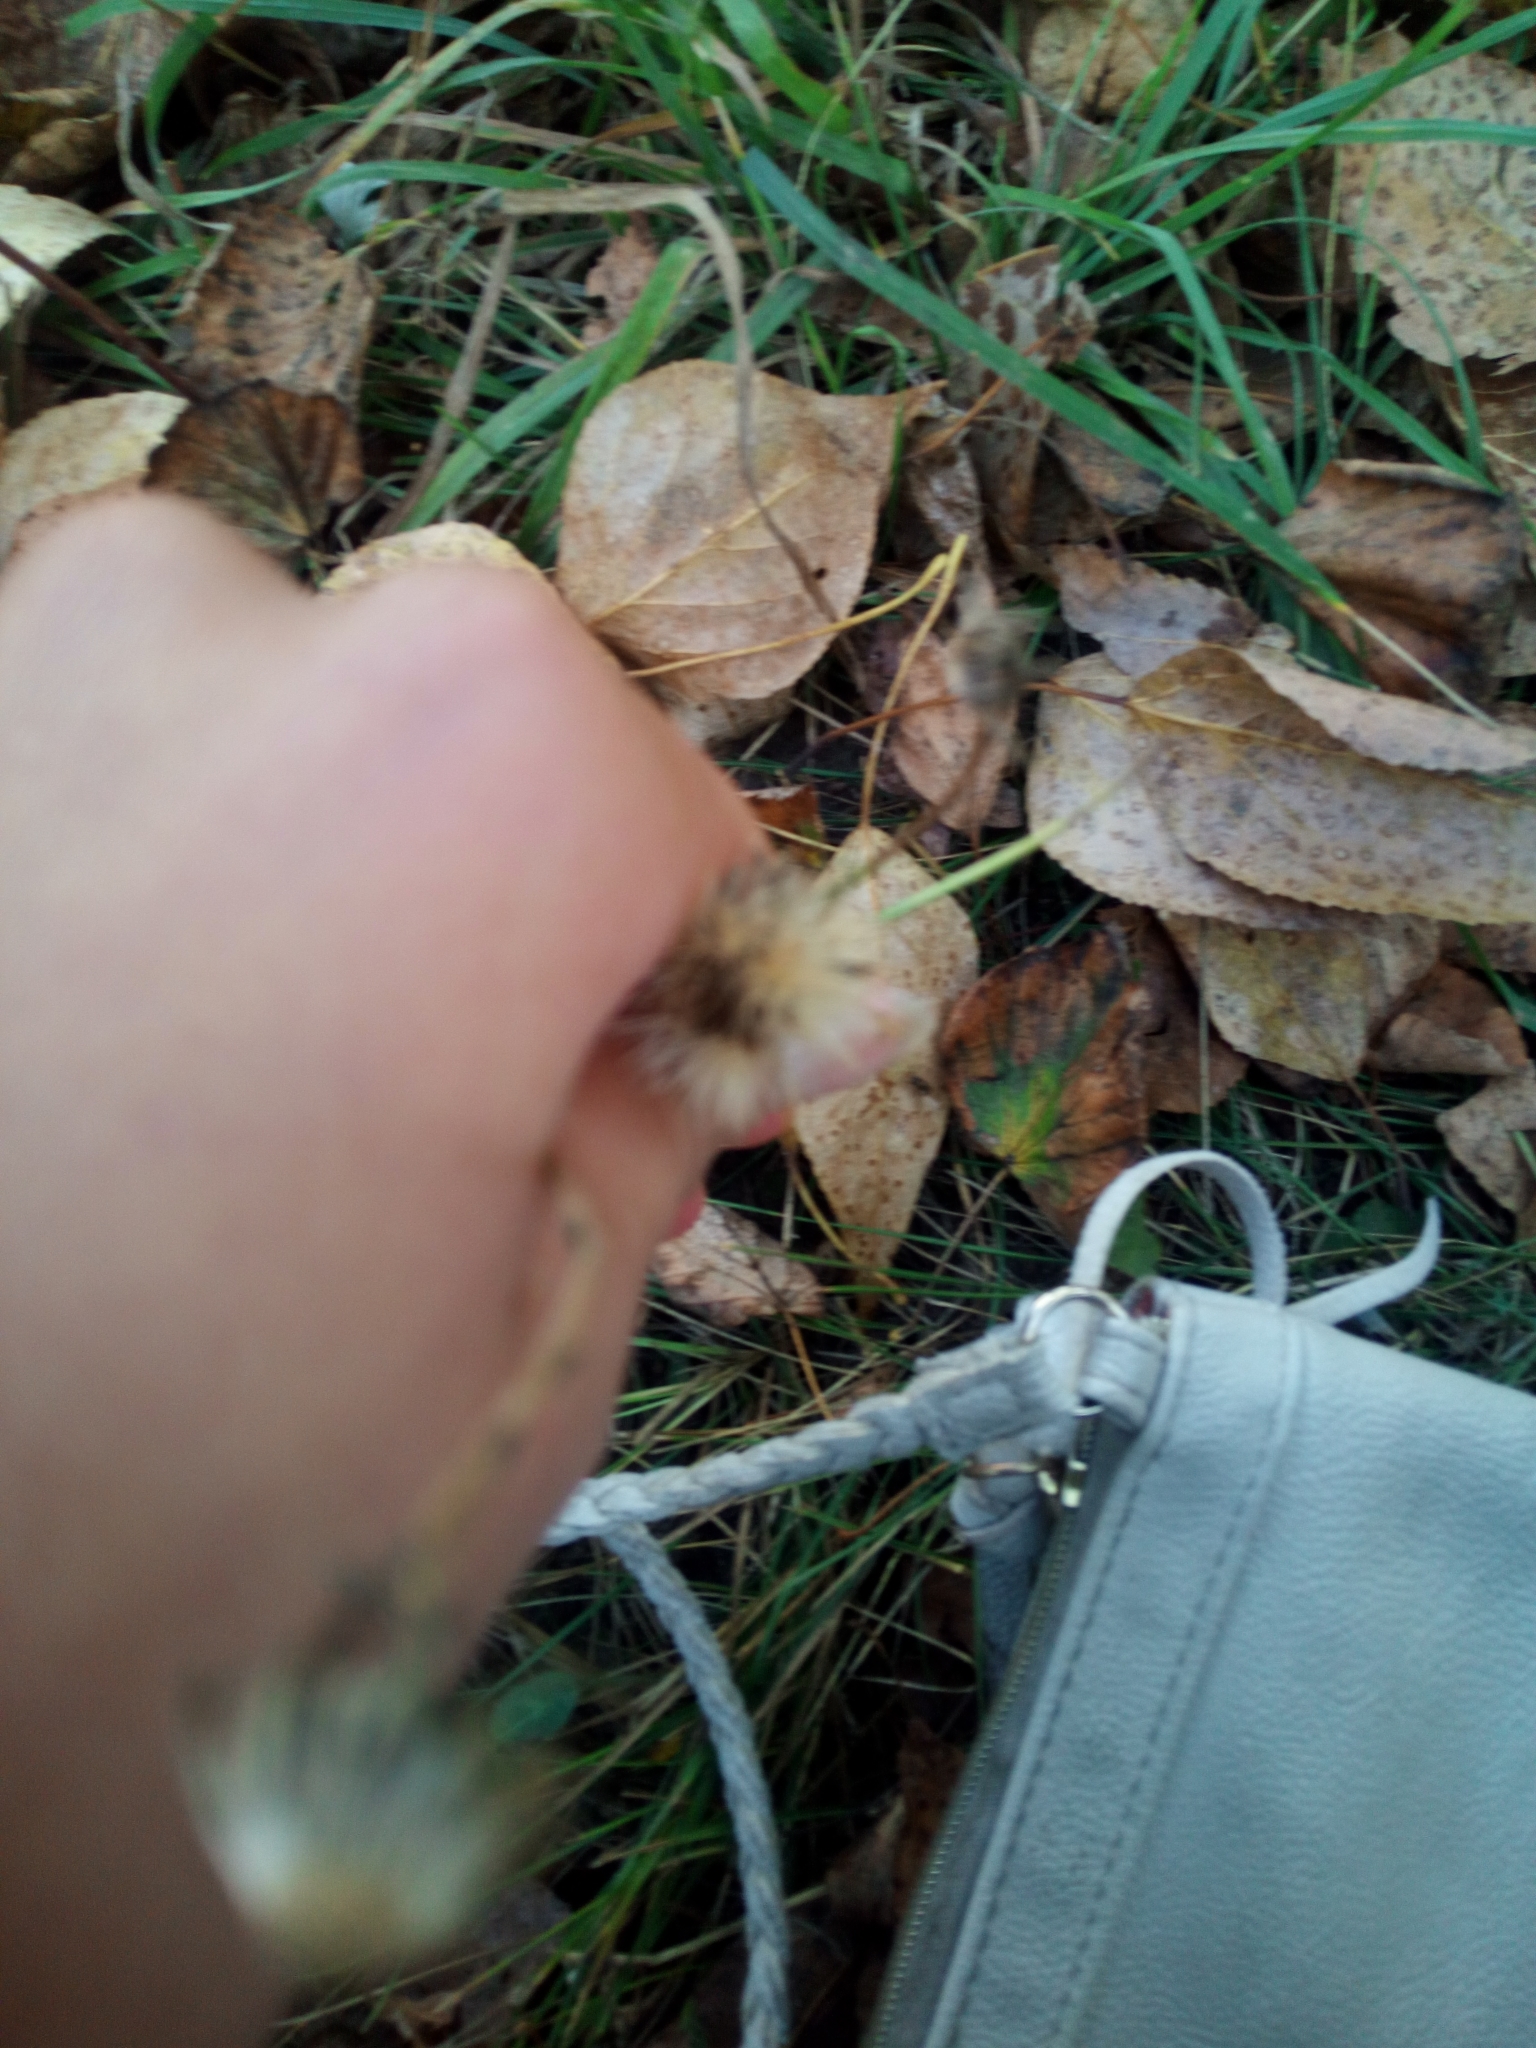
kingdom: Plantae
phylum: Tracheophyta
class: Magnoliopsida
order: Asterales
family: Asteraceae
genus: Scorzoneroides
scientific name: Scorzoneroides autumnalis
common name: Autumn hawkbit
